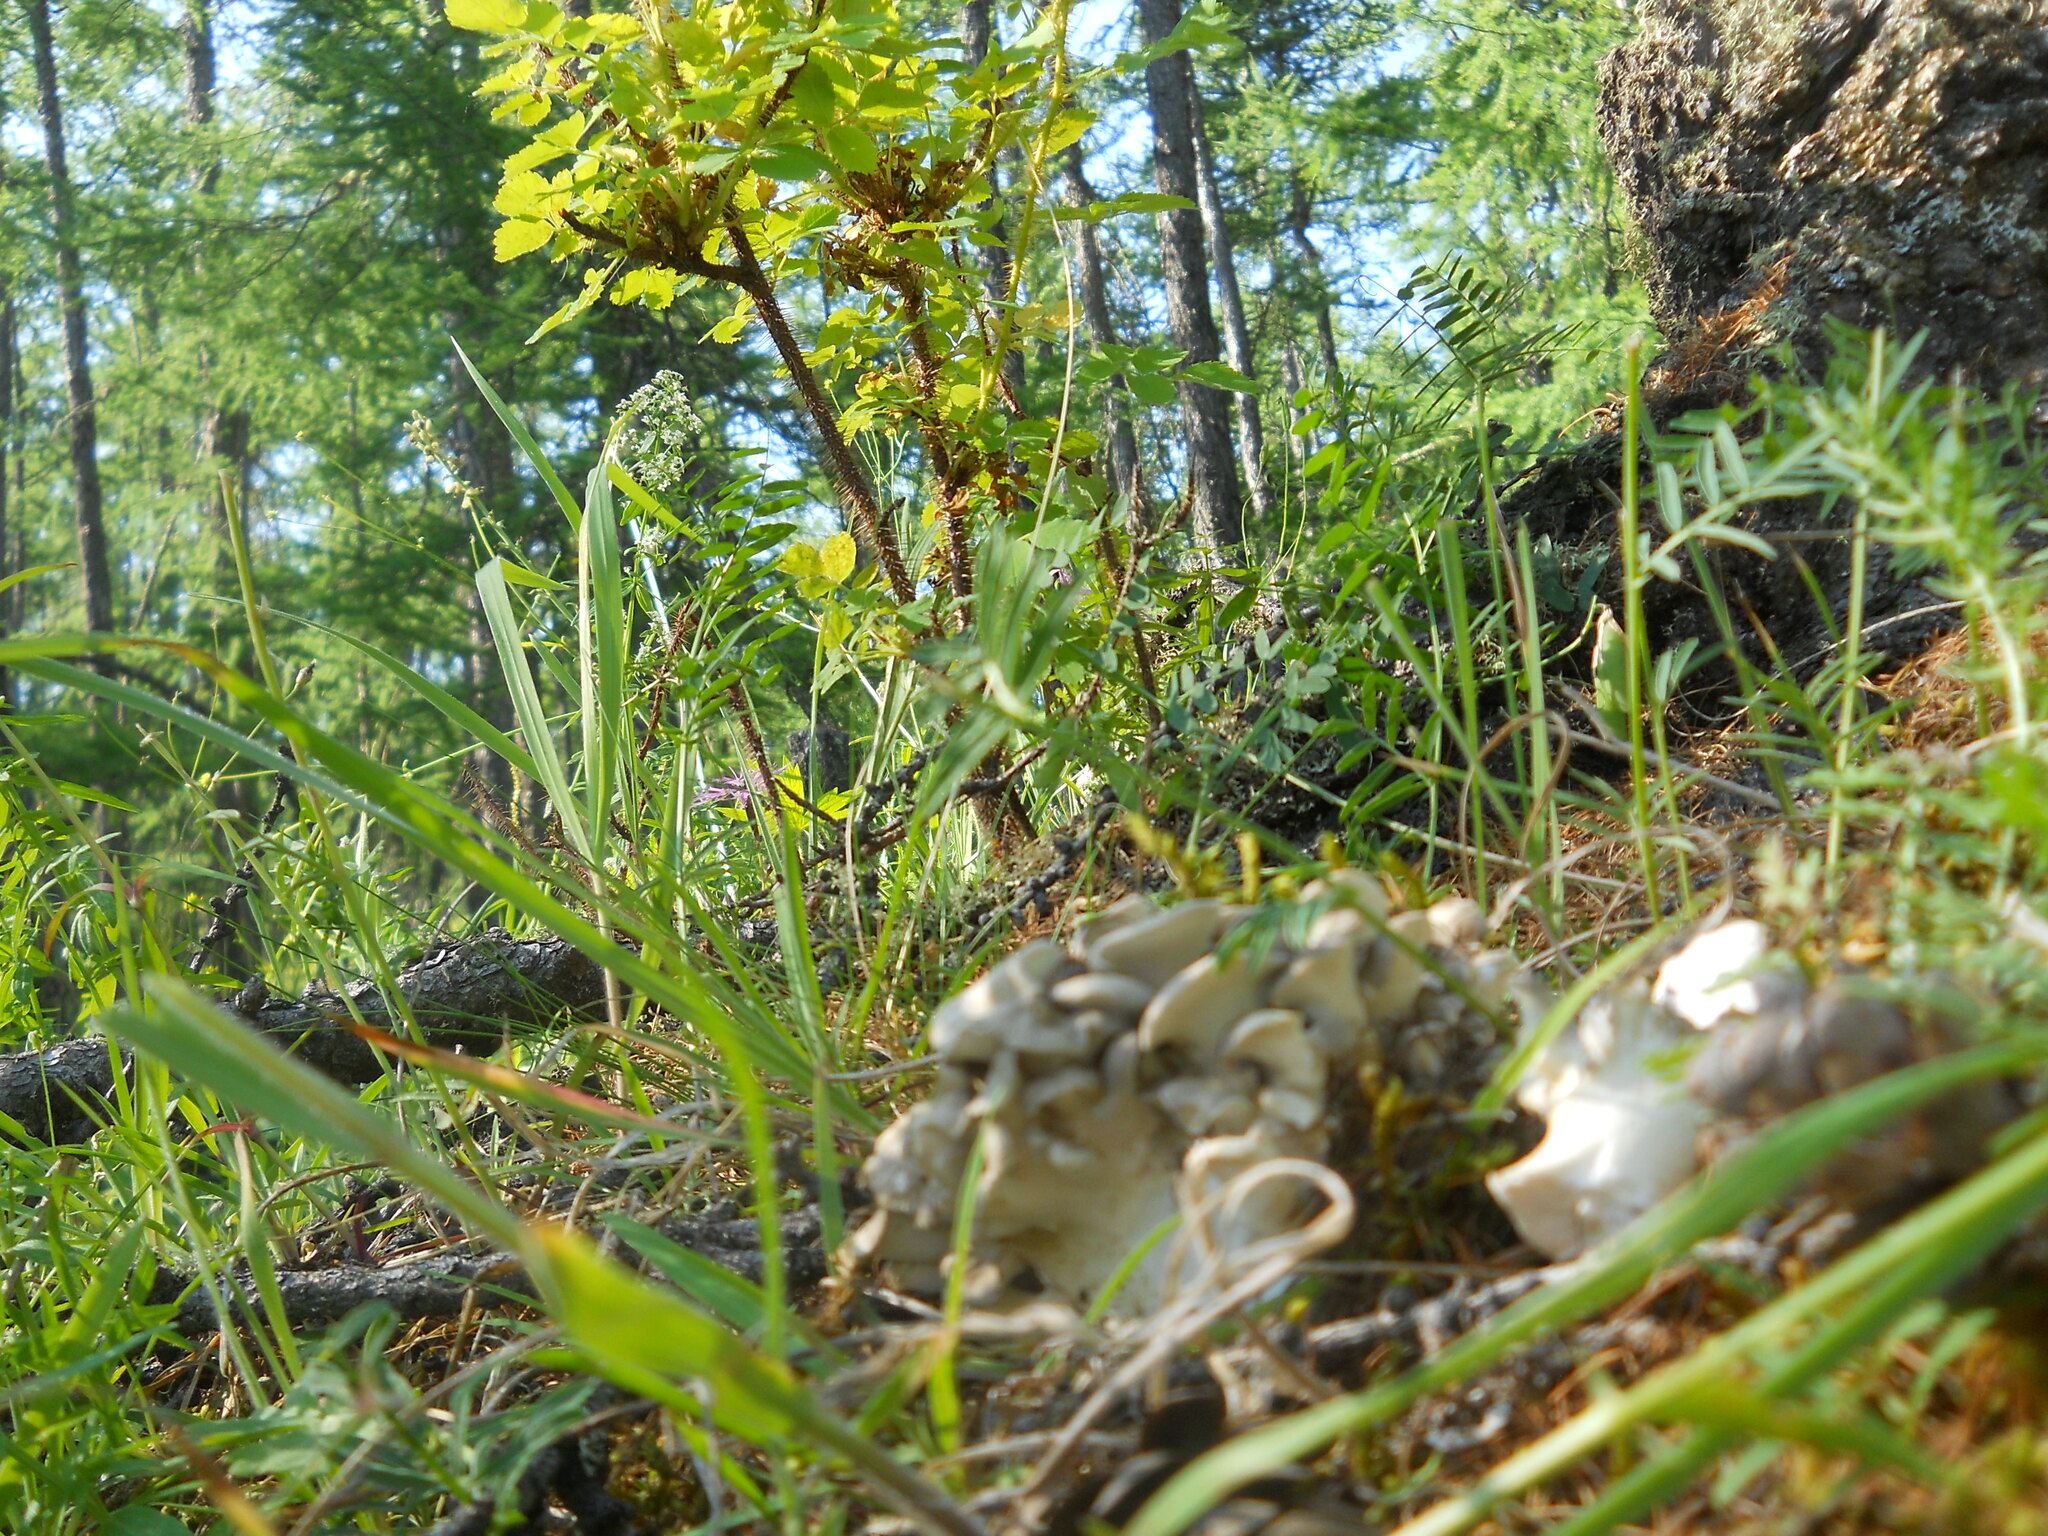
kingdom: Fungi
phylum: Basidiomycota
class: Agaricomycetes
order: Polyporales
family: Grifolaceae
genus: Grifola
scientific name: Grifola frondosa
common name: Hen of the woods
